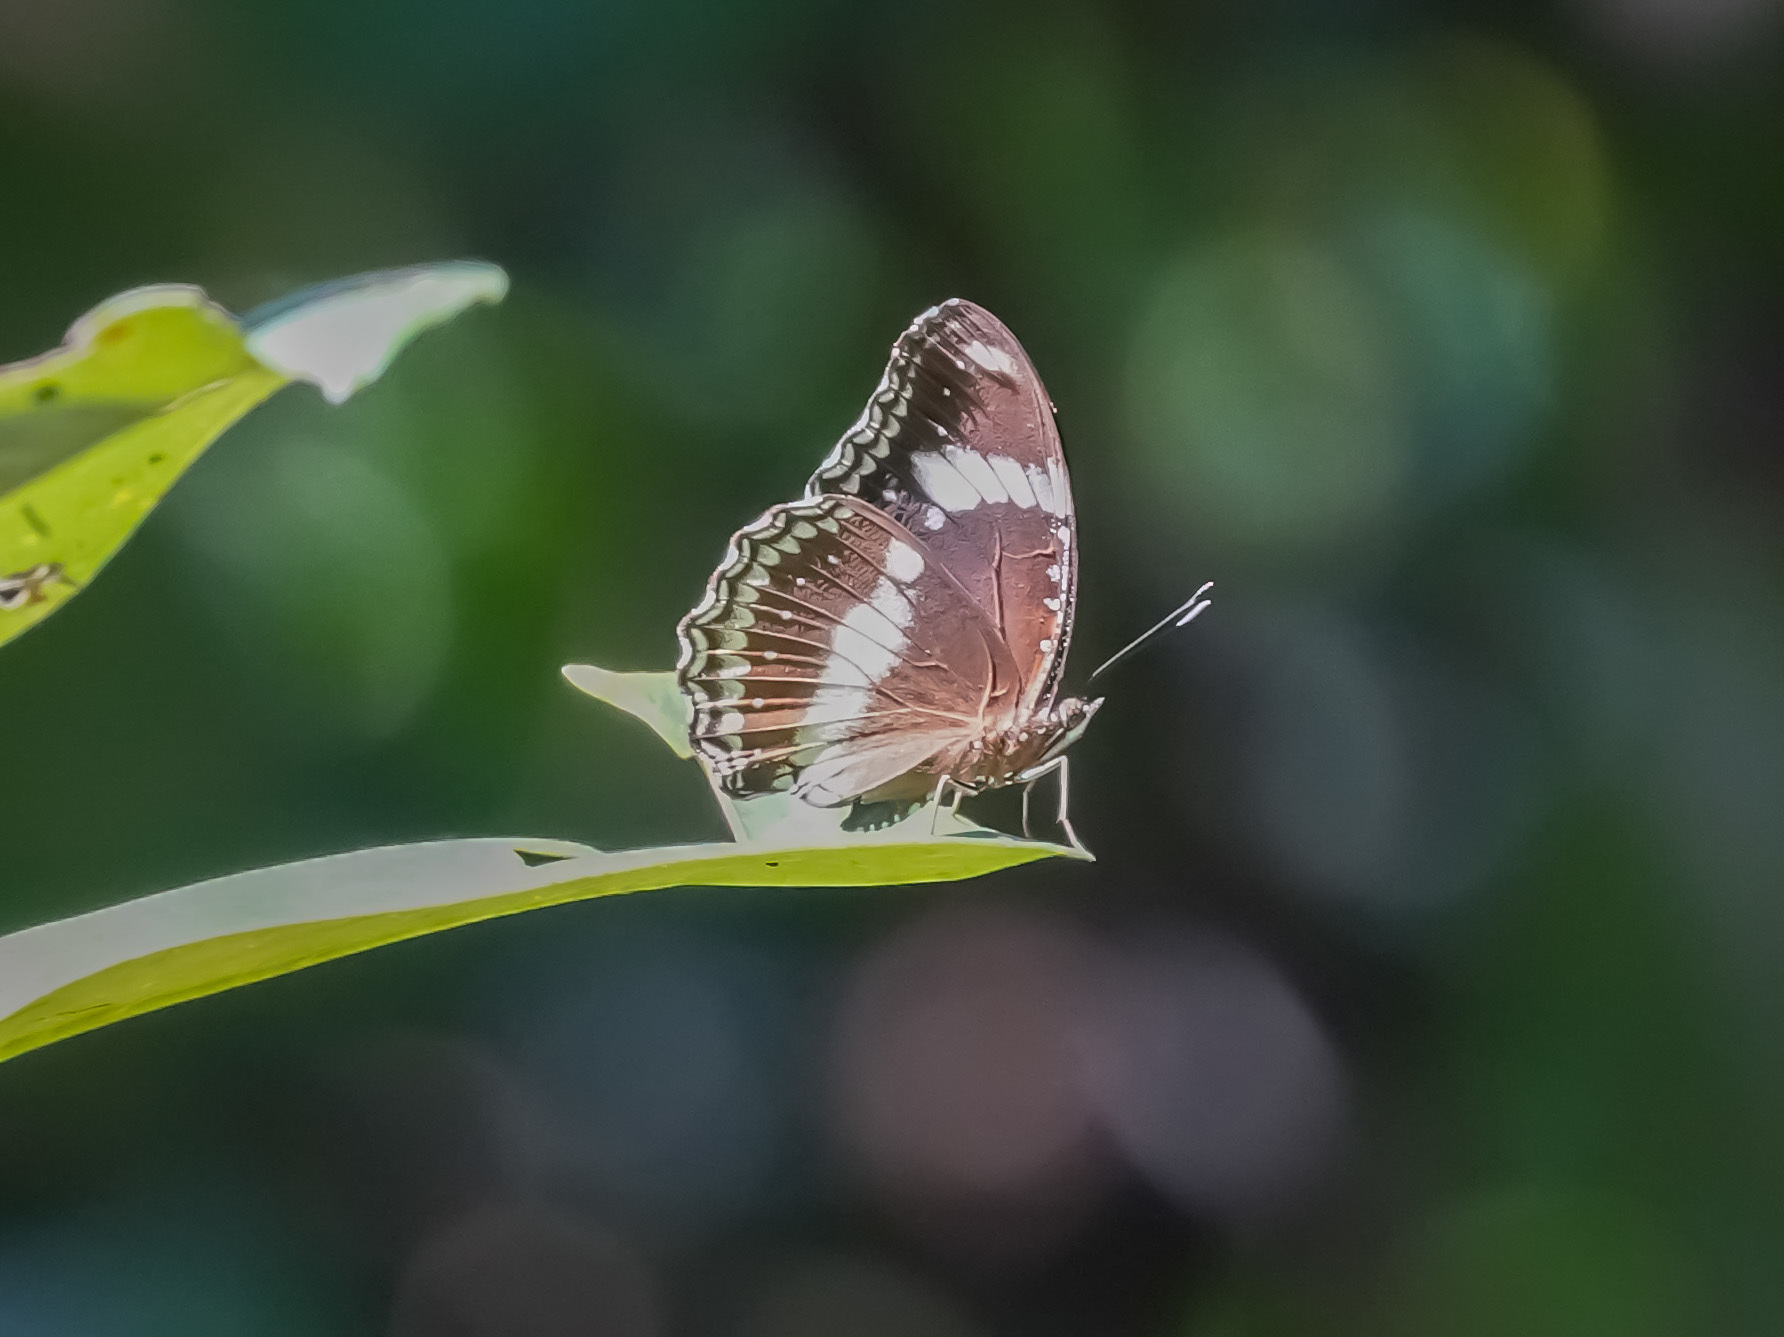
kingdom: Animalia
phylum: Arthropoda
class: Insecta
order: Lepidoptera
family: Nymphalidae
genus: Hypolimnas
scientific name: Hypolimnas bolina
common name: Great eggfly
